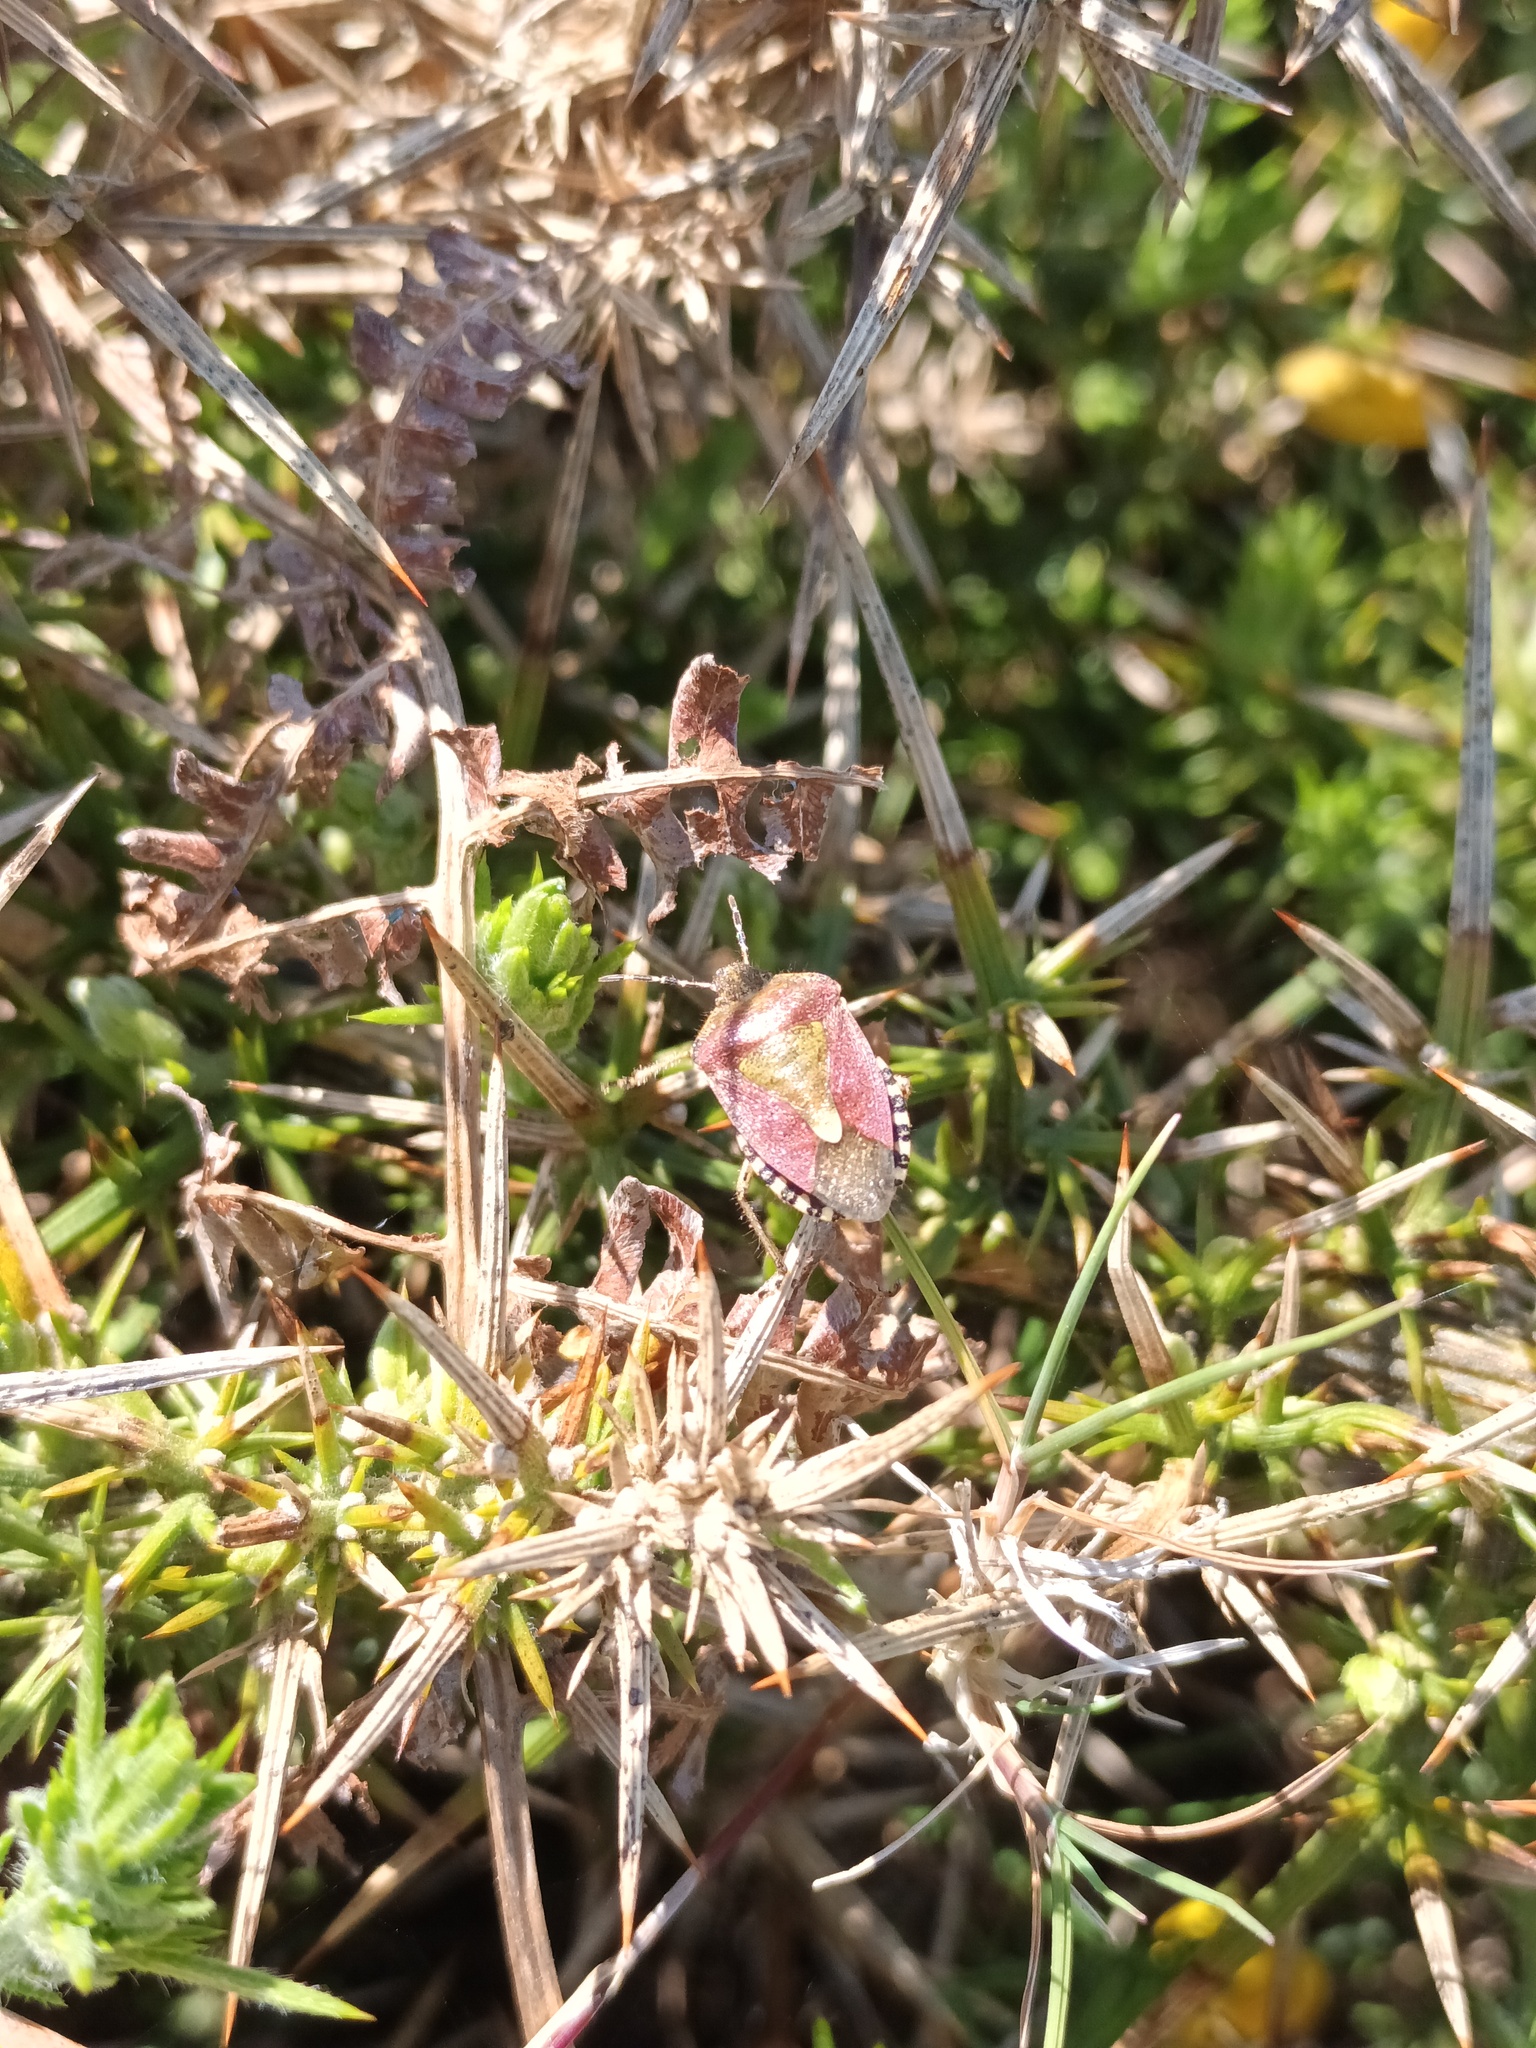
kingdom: Animalia
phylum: Arthropoda
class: Insecta
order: Hemiptera
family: Pentatomidae
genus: Dolycoris
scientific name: Dolycoris baccarum
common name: Sloe bug
